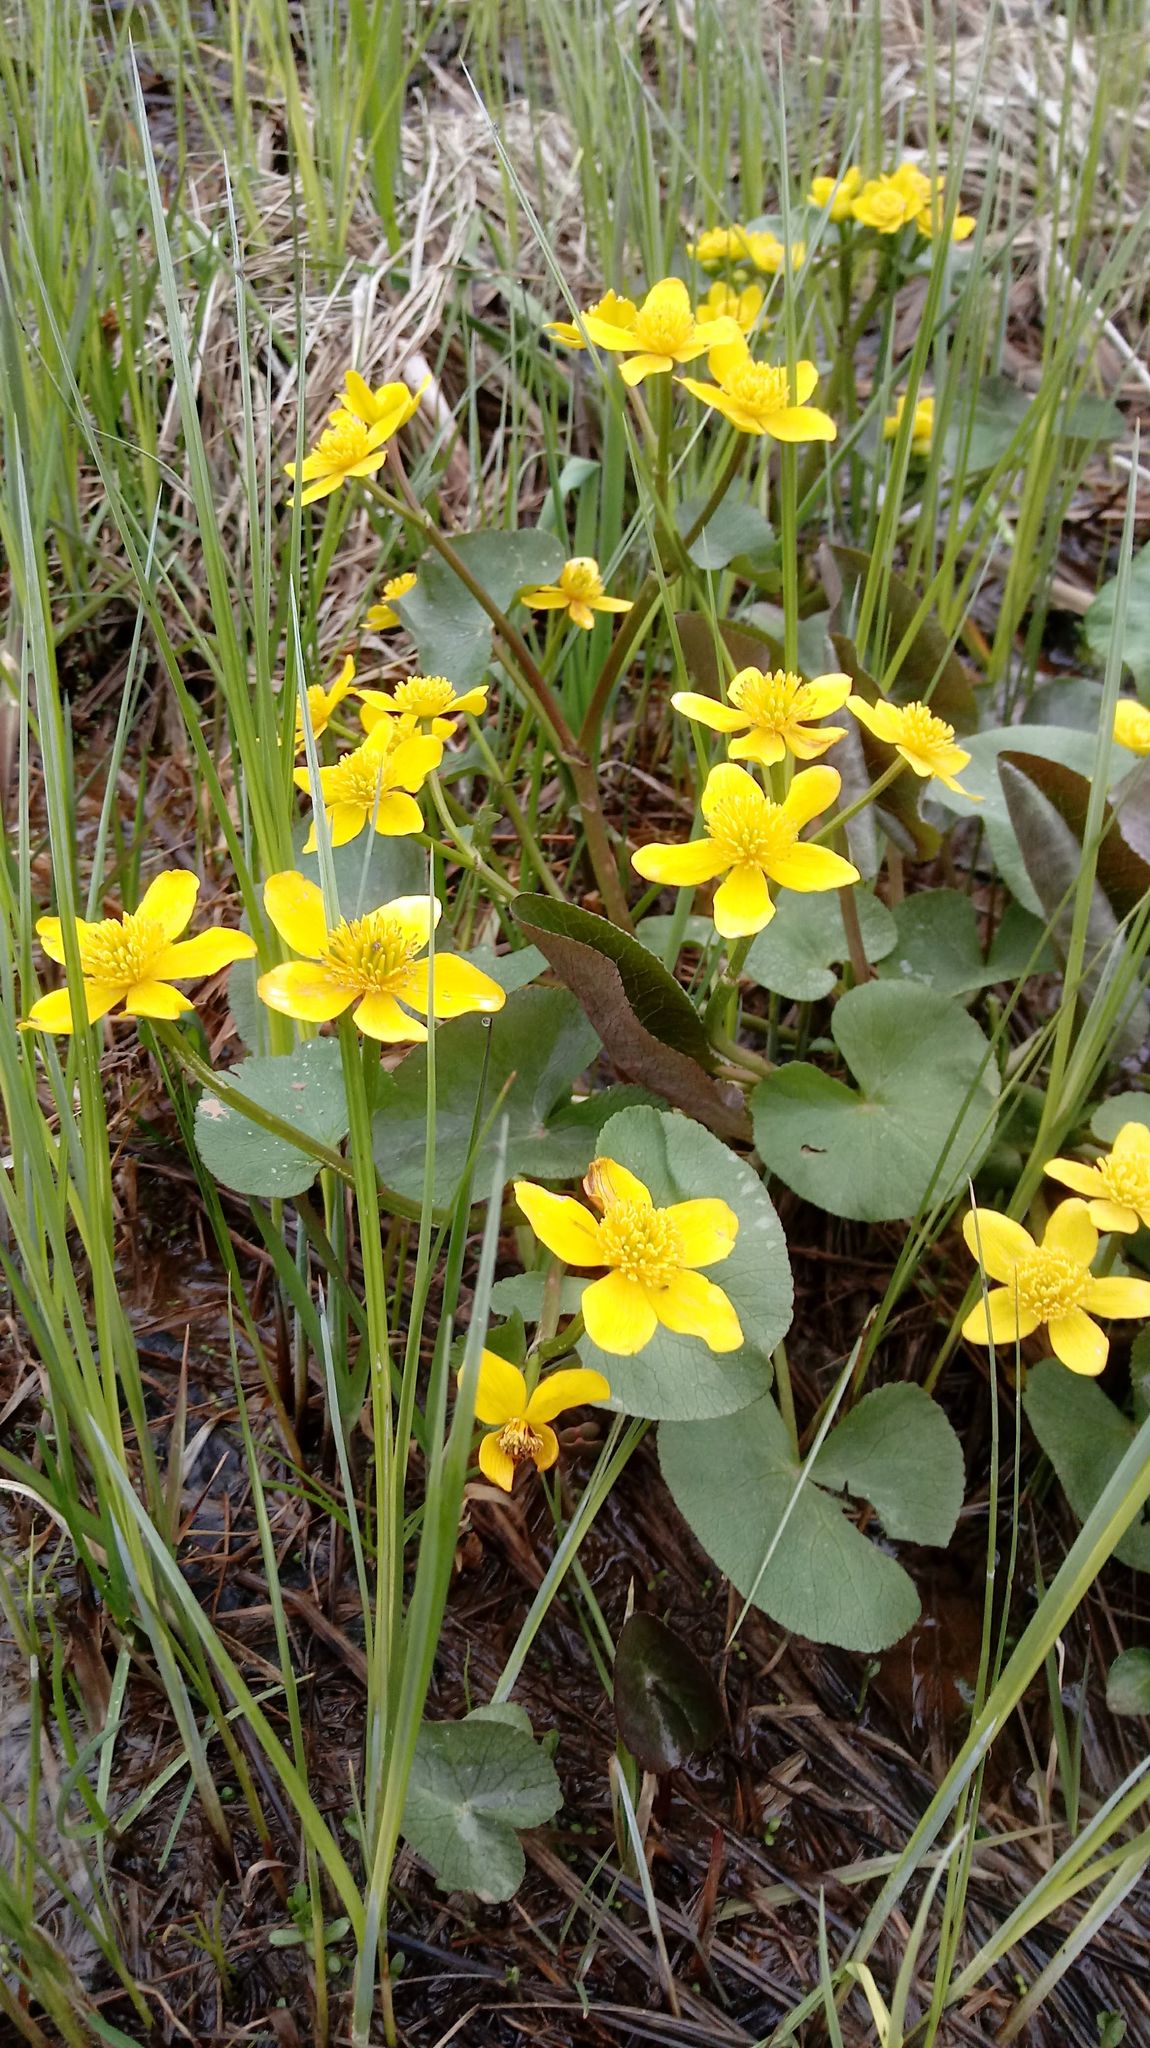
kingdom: Plantae
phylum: Tracheophyta
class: Magnoliopsida
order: Ranunculales
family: Ranunculaceae
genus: Caltha
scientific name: Caltha palustris
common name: Marsh marigold
